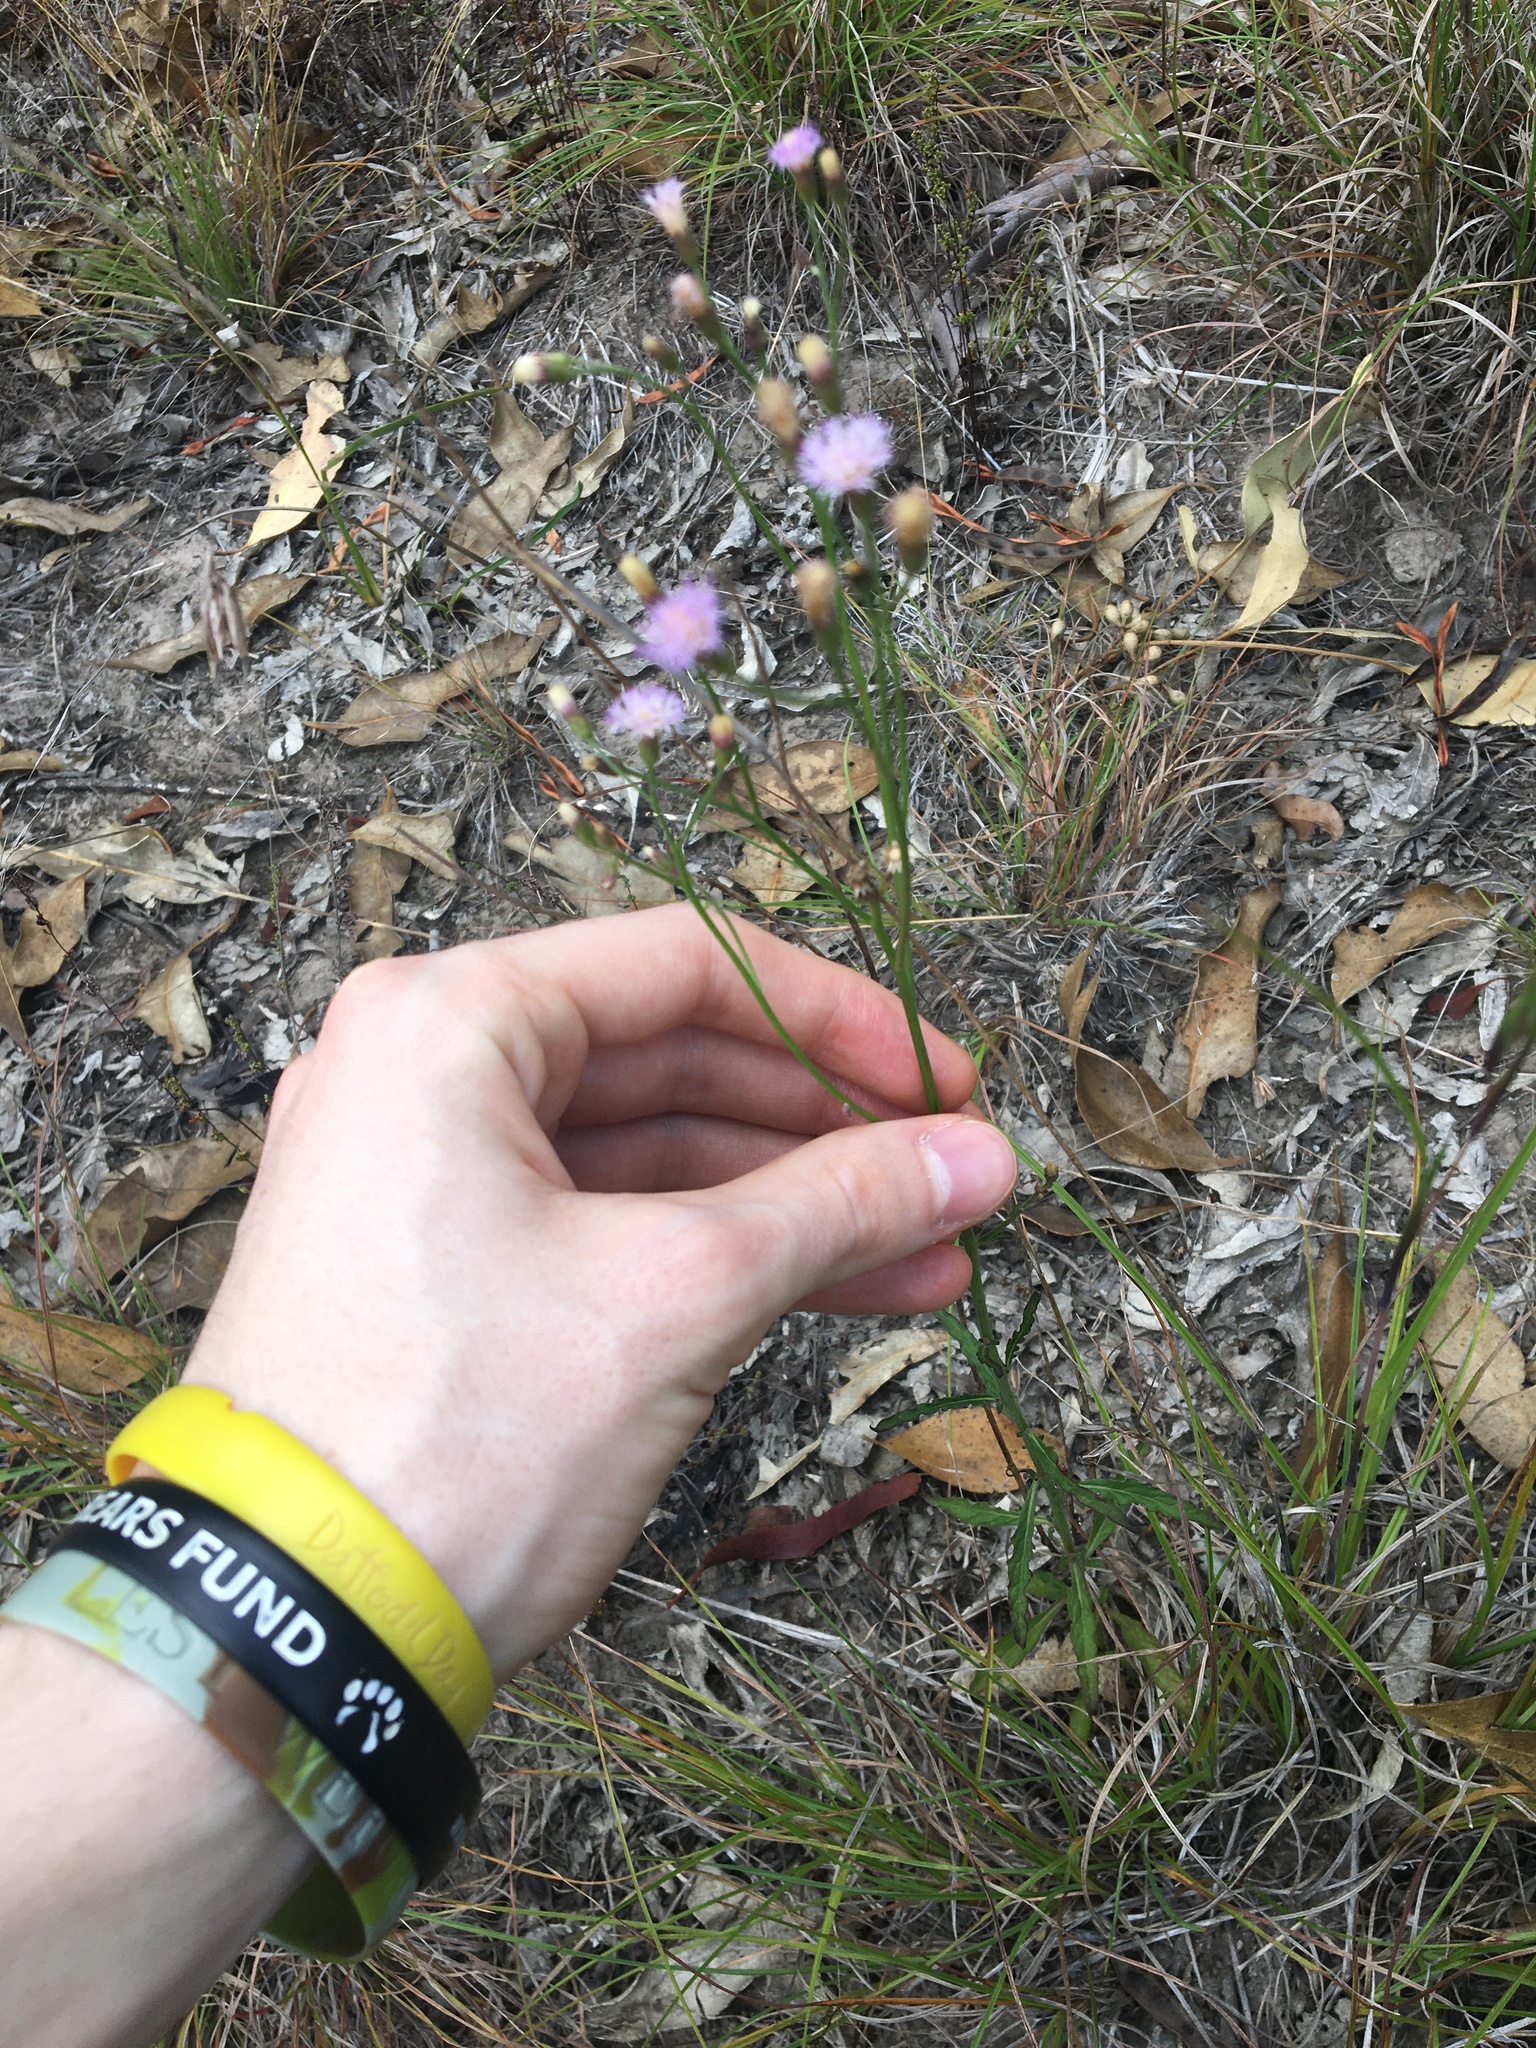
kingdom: Plantae
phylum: Tracheophyta
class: Magnoliopsida
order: Asterales
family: Asteraceae
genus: Cyanthillium
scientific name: Cyanthillium cinereum
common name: Little ironweed
